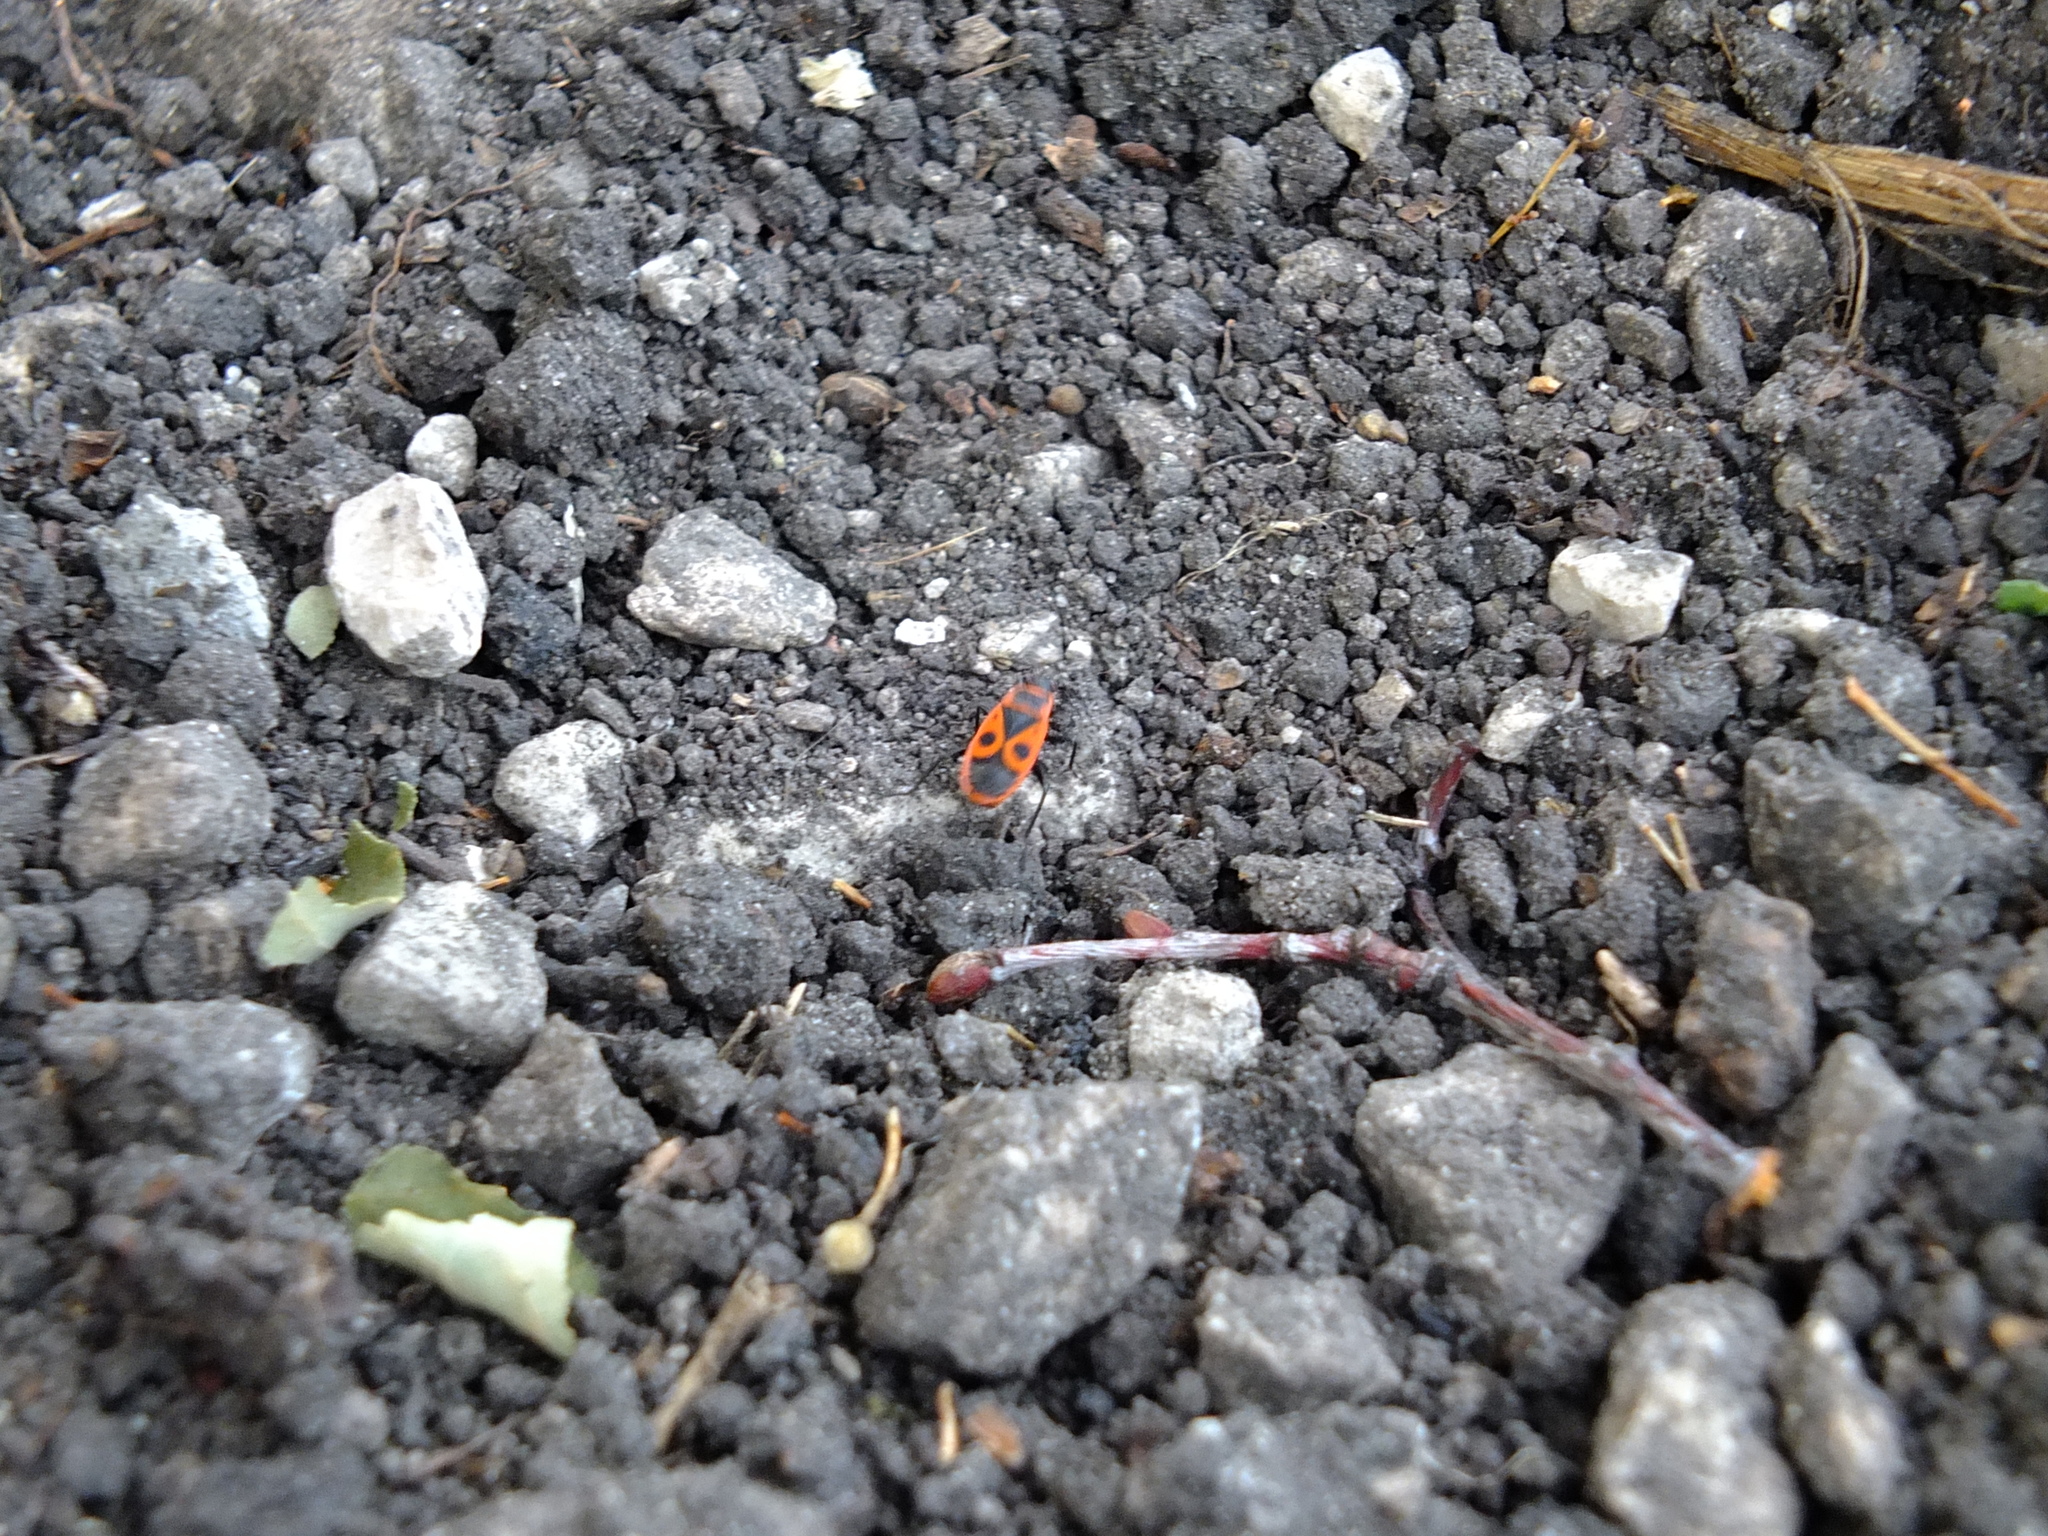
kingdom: Animalia
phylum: Arthropoda
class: Insecta
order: Hemiptera
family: Pyrrhocoridae
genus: Pyrrhocoris
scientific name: Pyrrhocoris apterus
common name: Firebug
